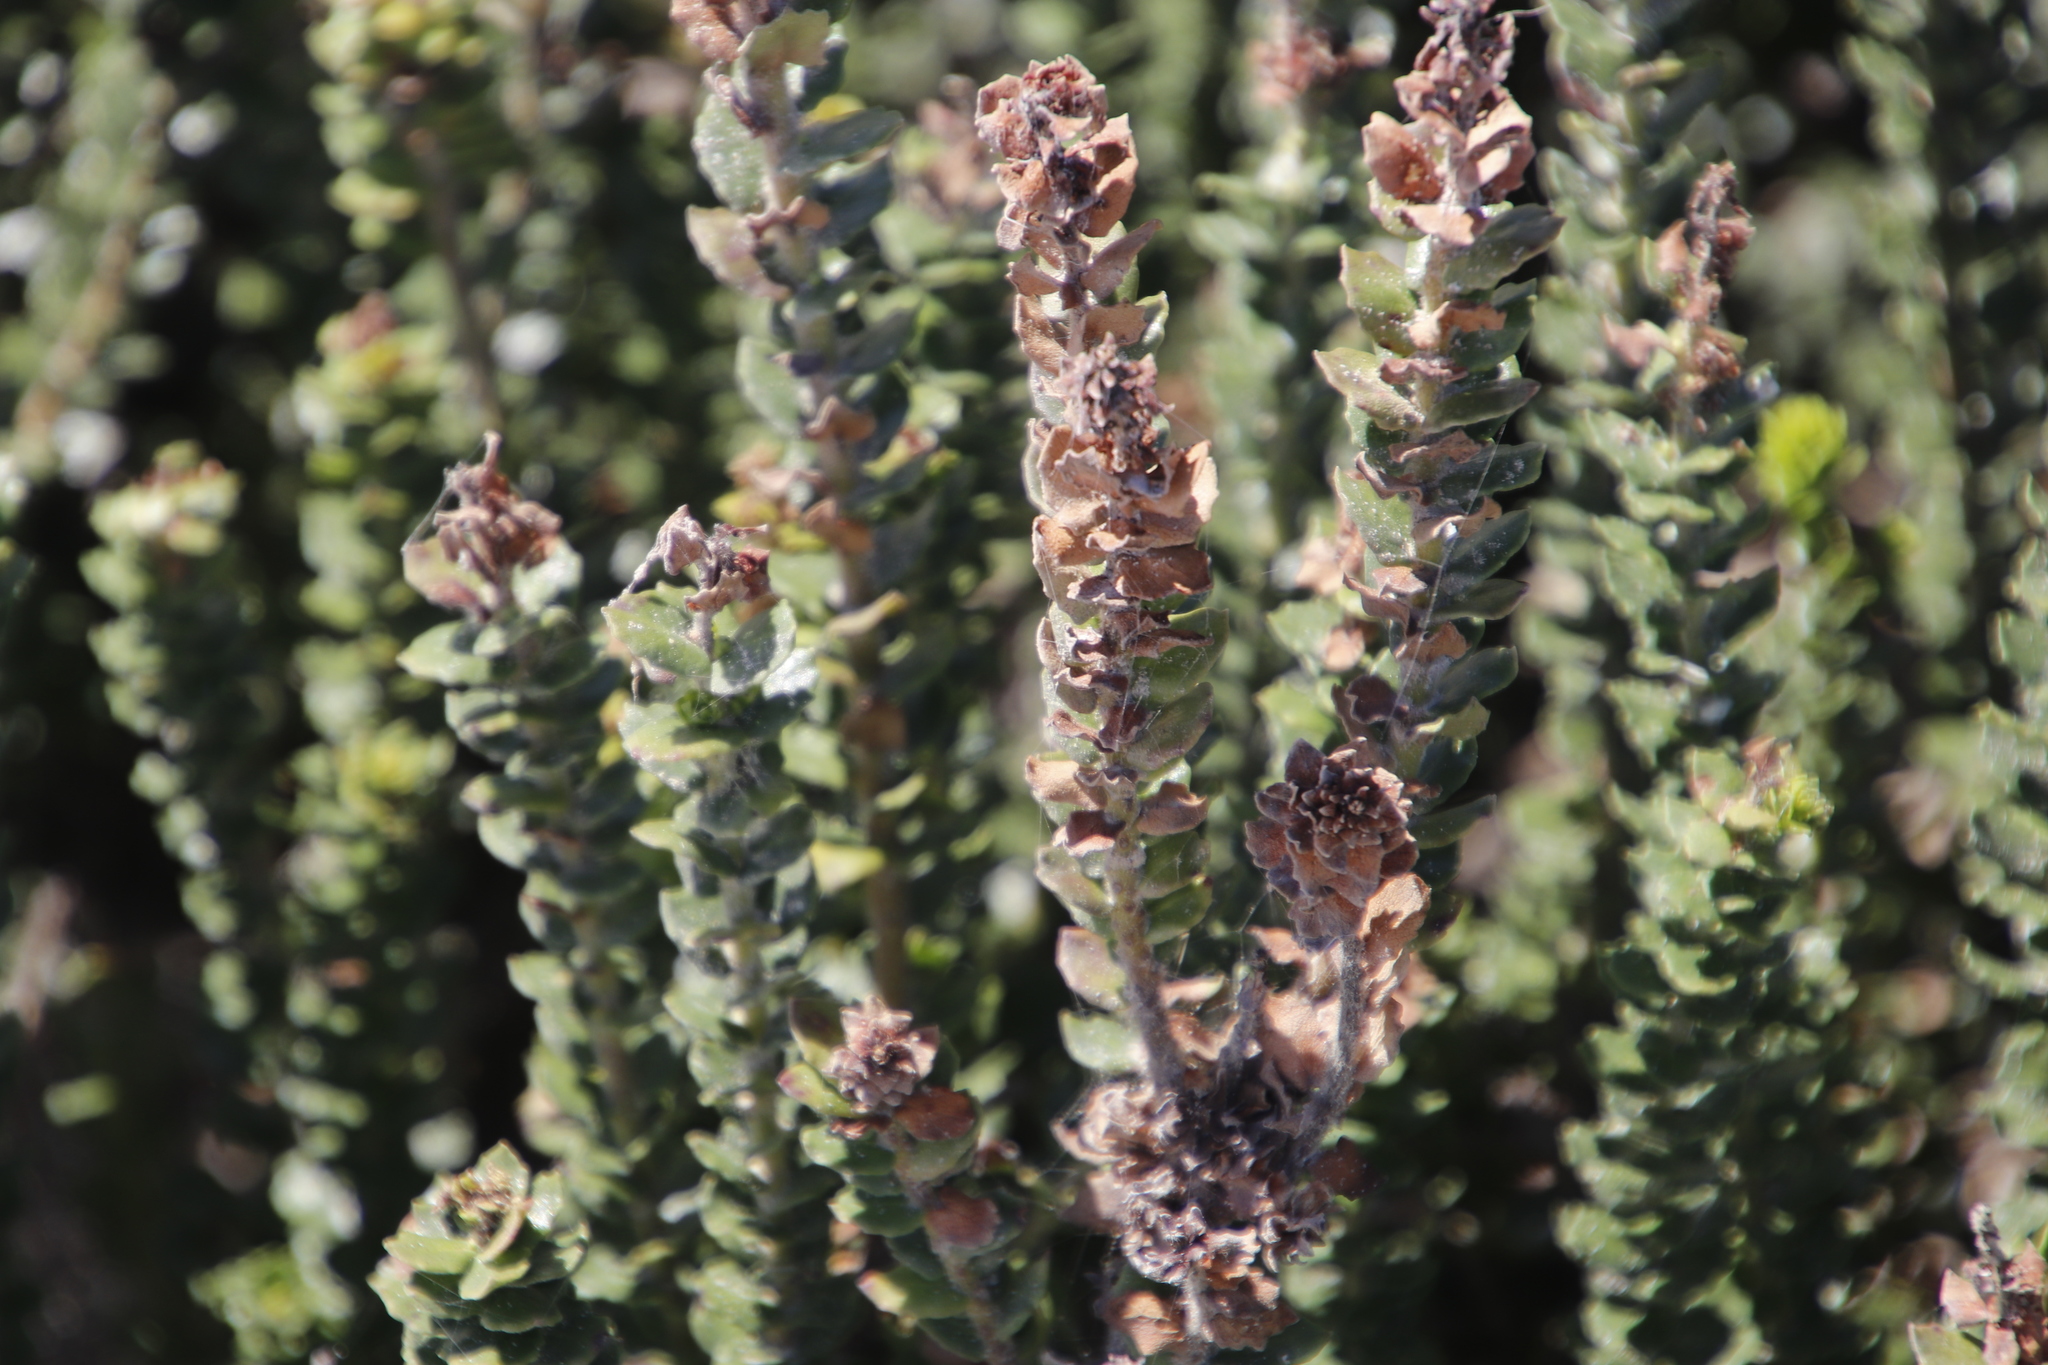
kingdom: Plantae
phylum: Tracheophyta
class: Magnoliopsida
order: Fagales
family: Myricaceae
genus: Morella
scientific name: Morella cordifolia
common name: Waxberry
